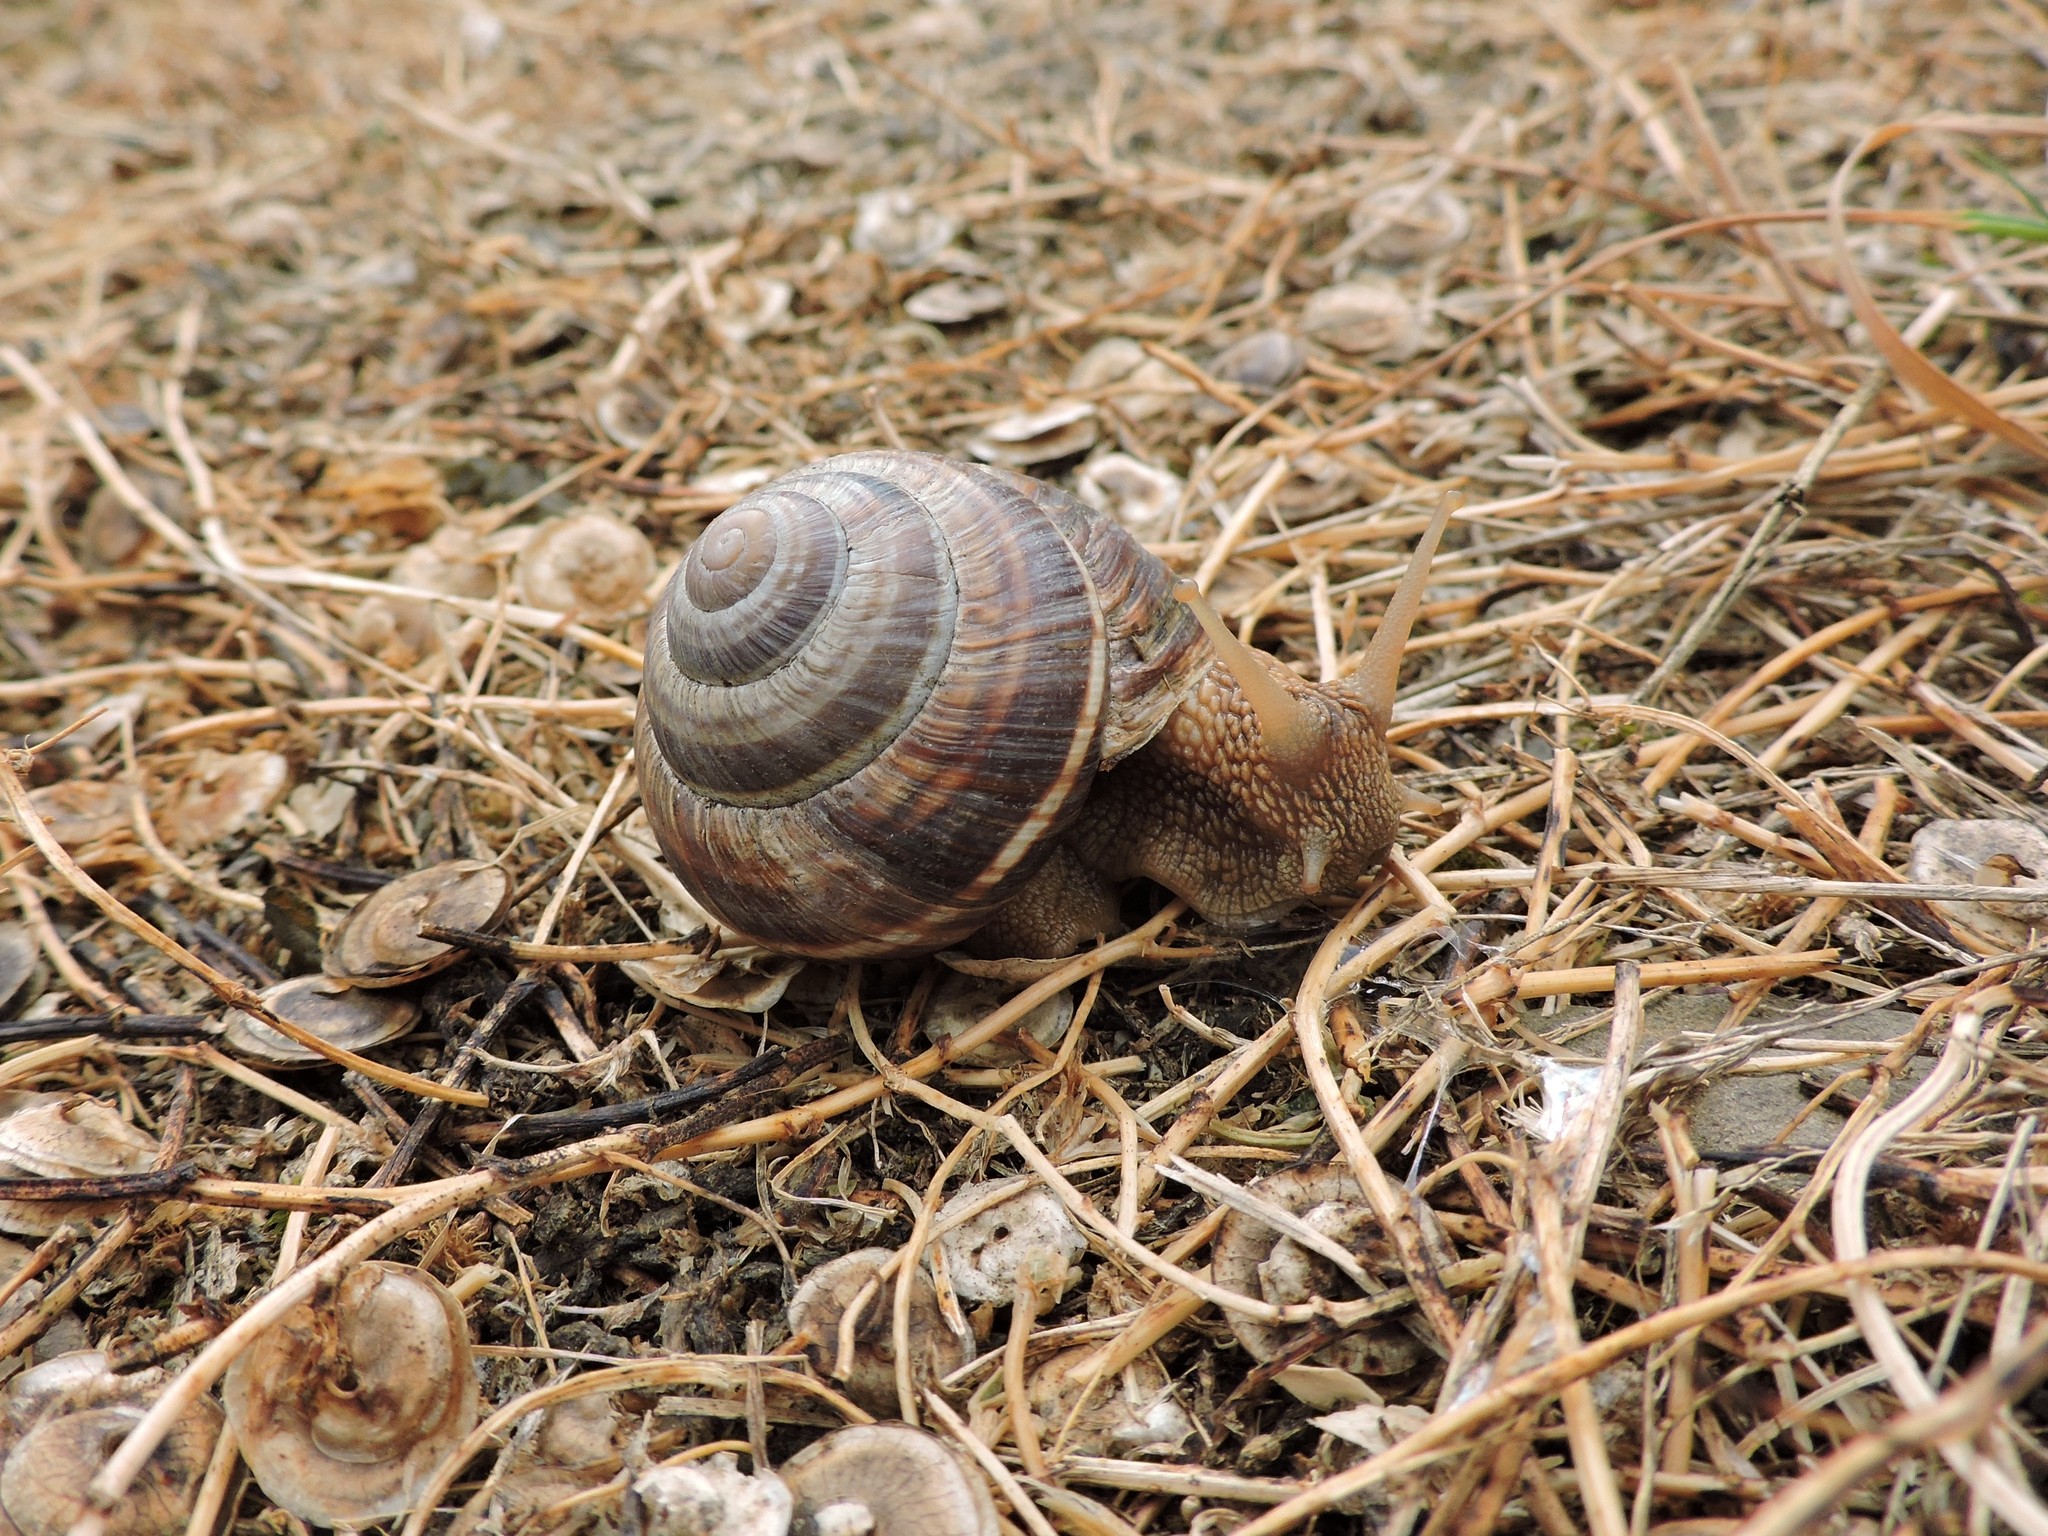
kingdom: Animalia
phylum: Mollusca
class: Gastropoda
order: Stylommatophora
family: Helicidae
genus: Helix
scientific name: Helix lucorum
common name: Turkish snail
